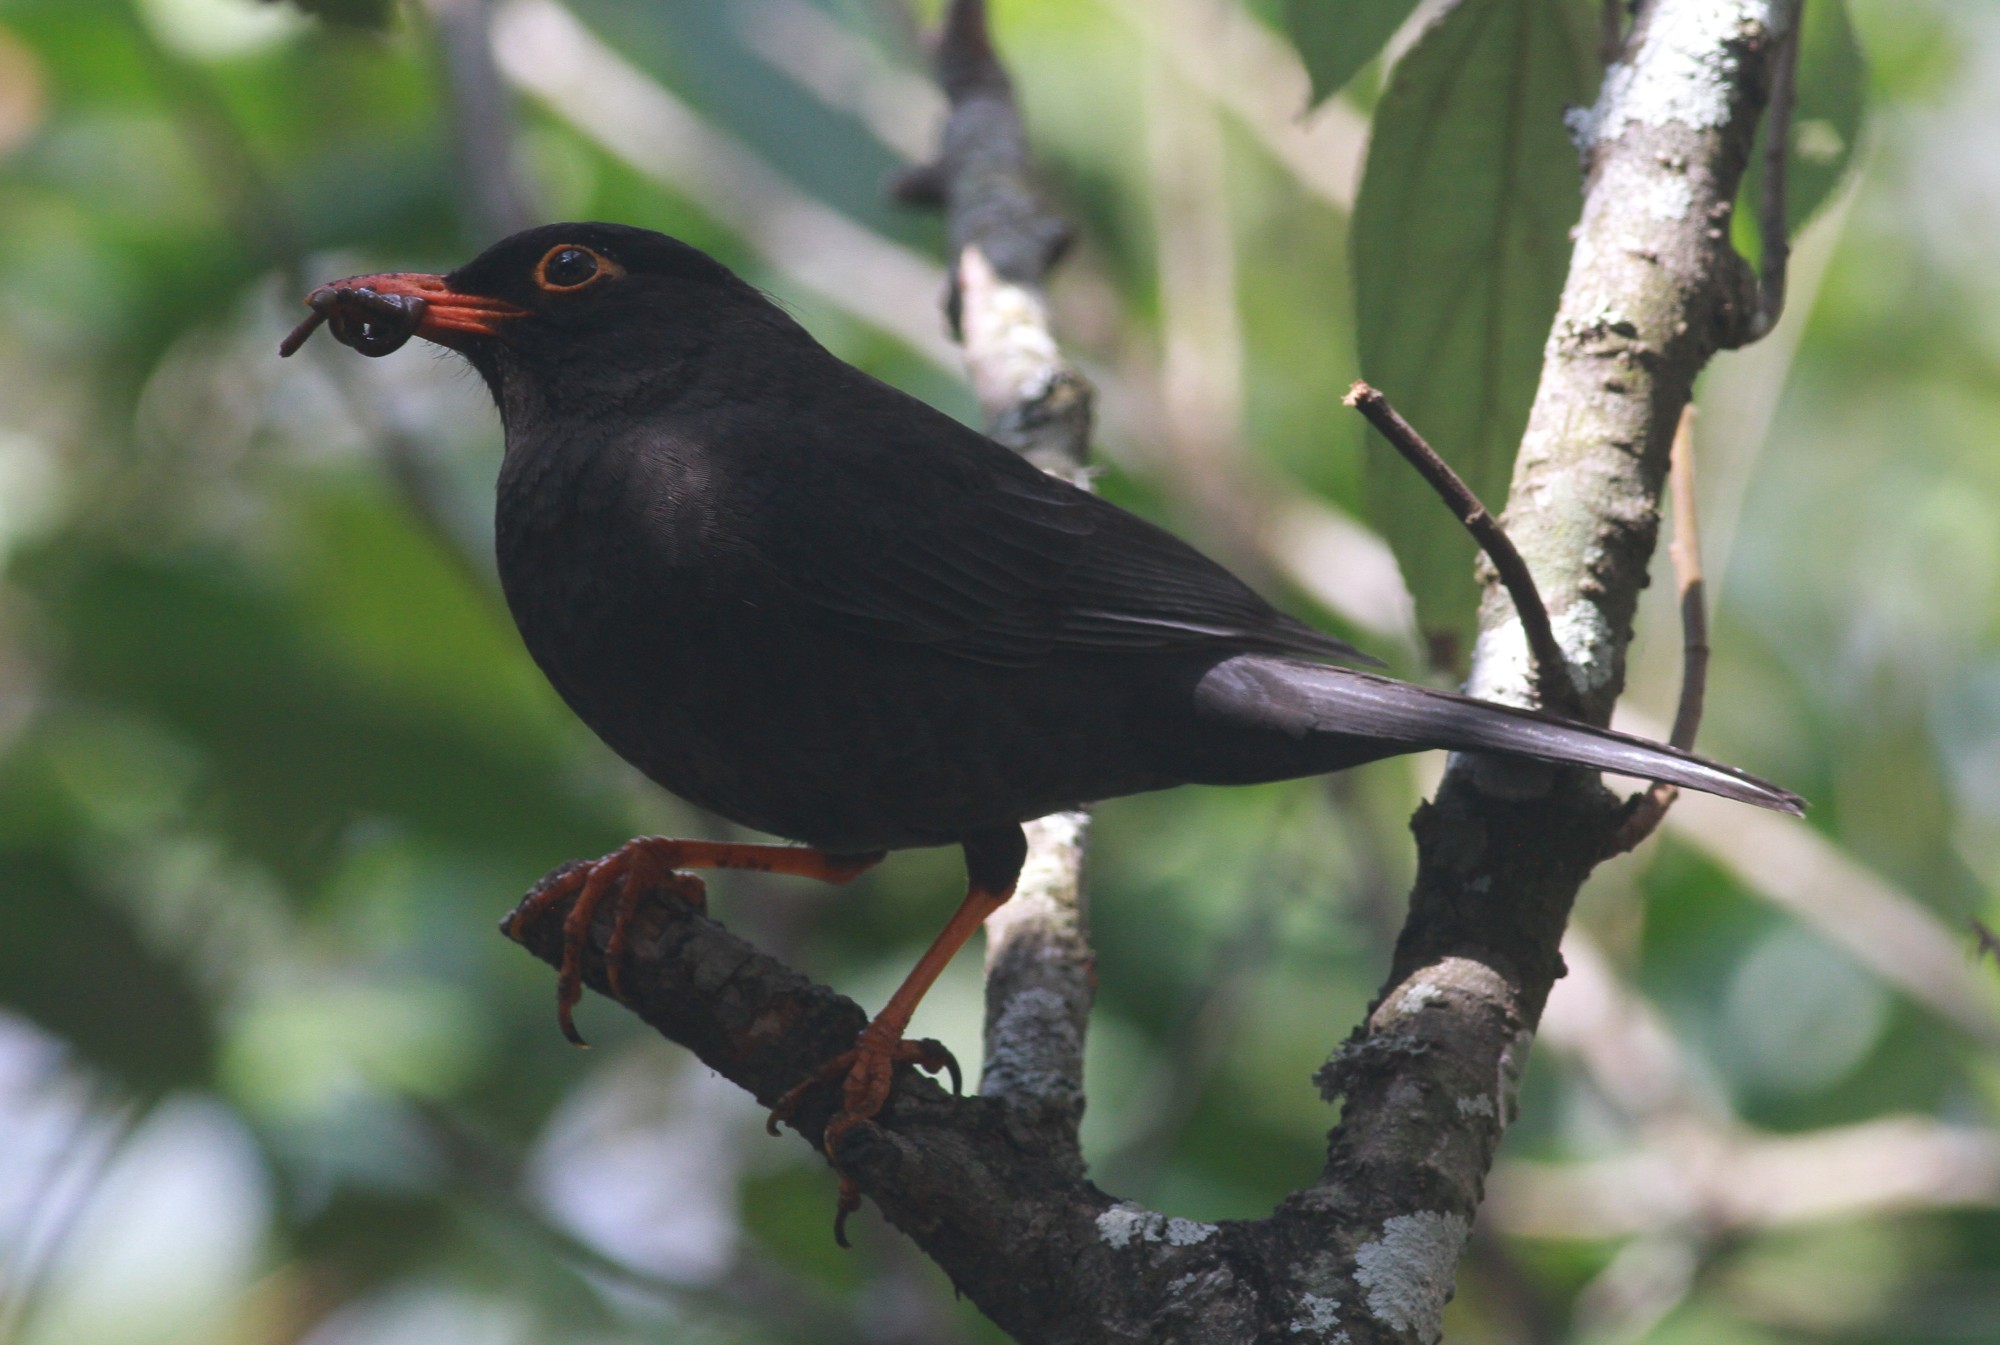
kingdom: Animalia
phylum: Chordata
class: Aves
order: Passeriformes
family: Turdidae
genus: Turdus
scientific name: Turdus simillimus
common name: Indian blackbird
